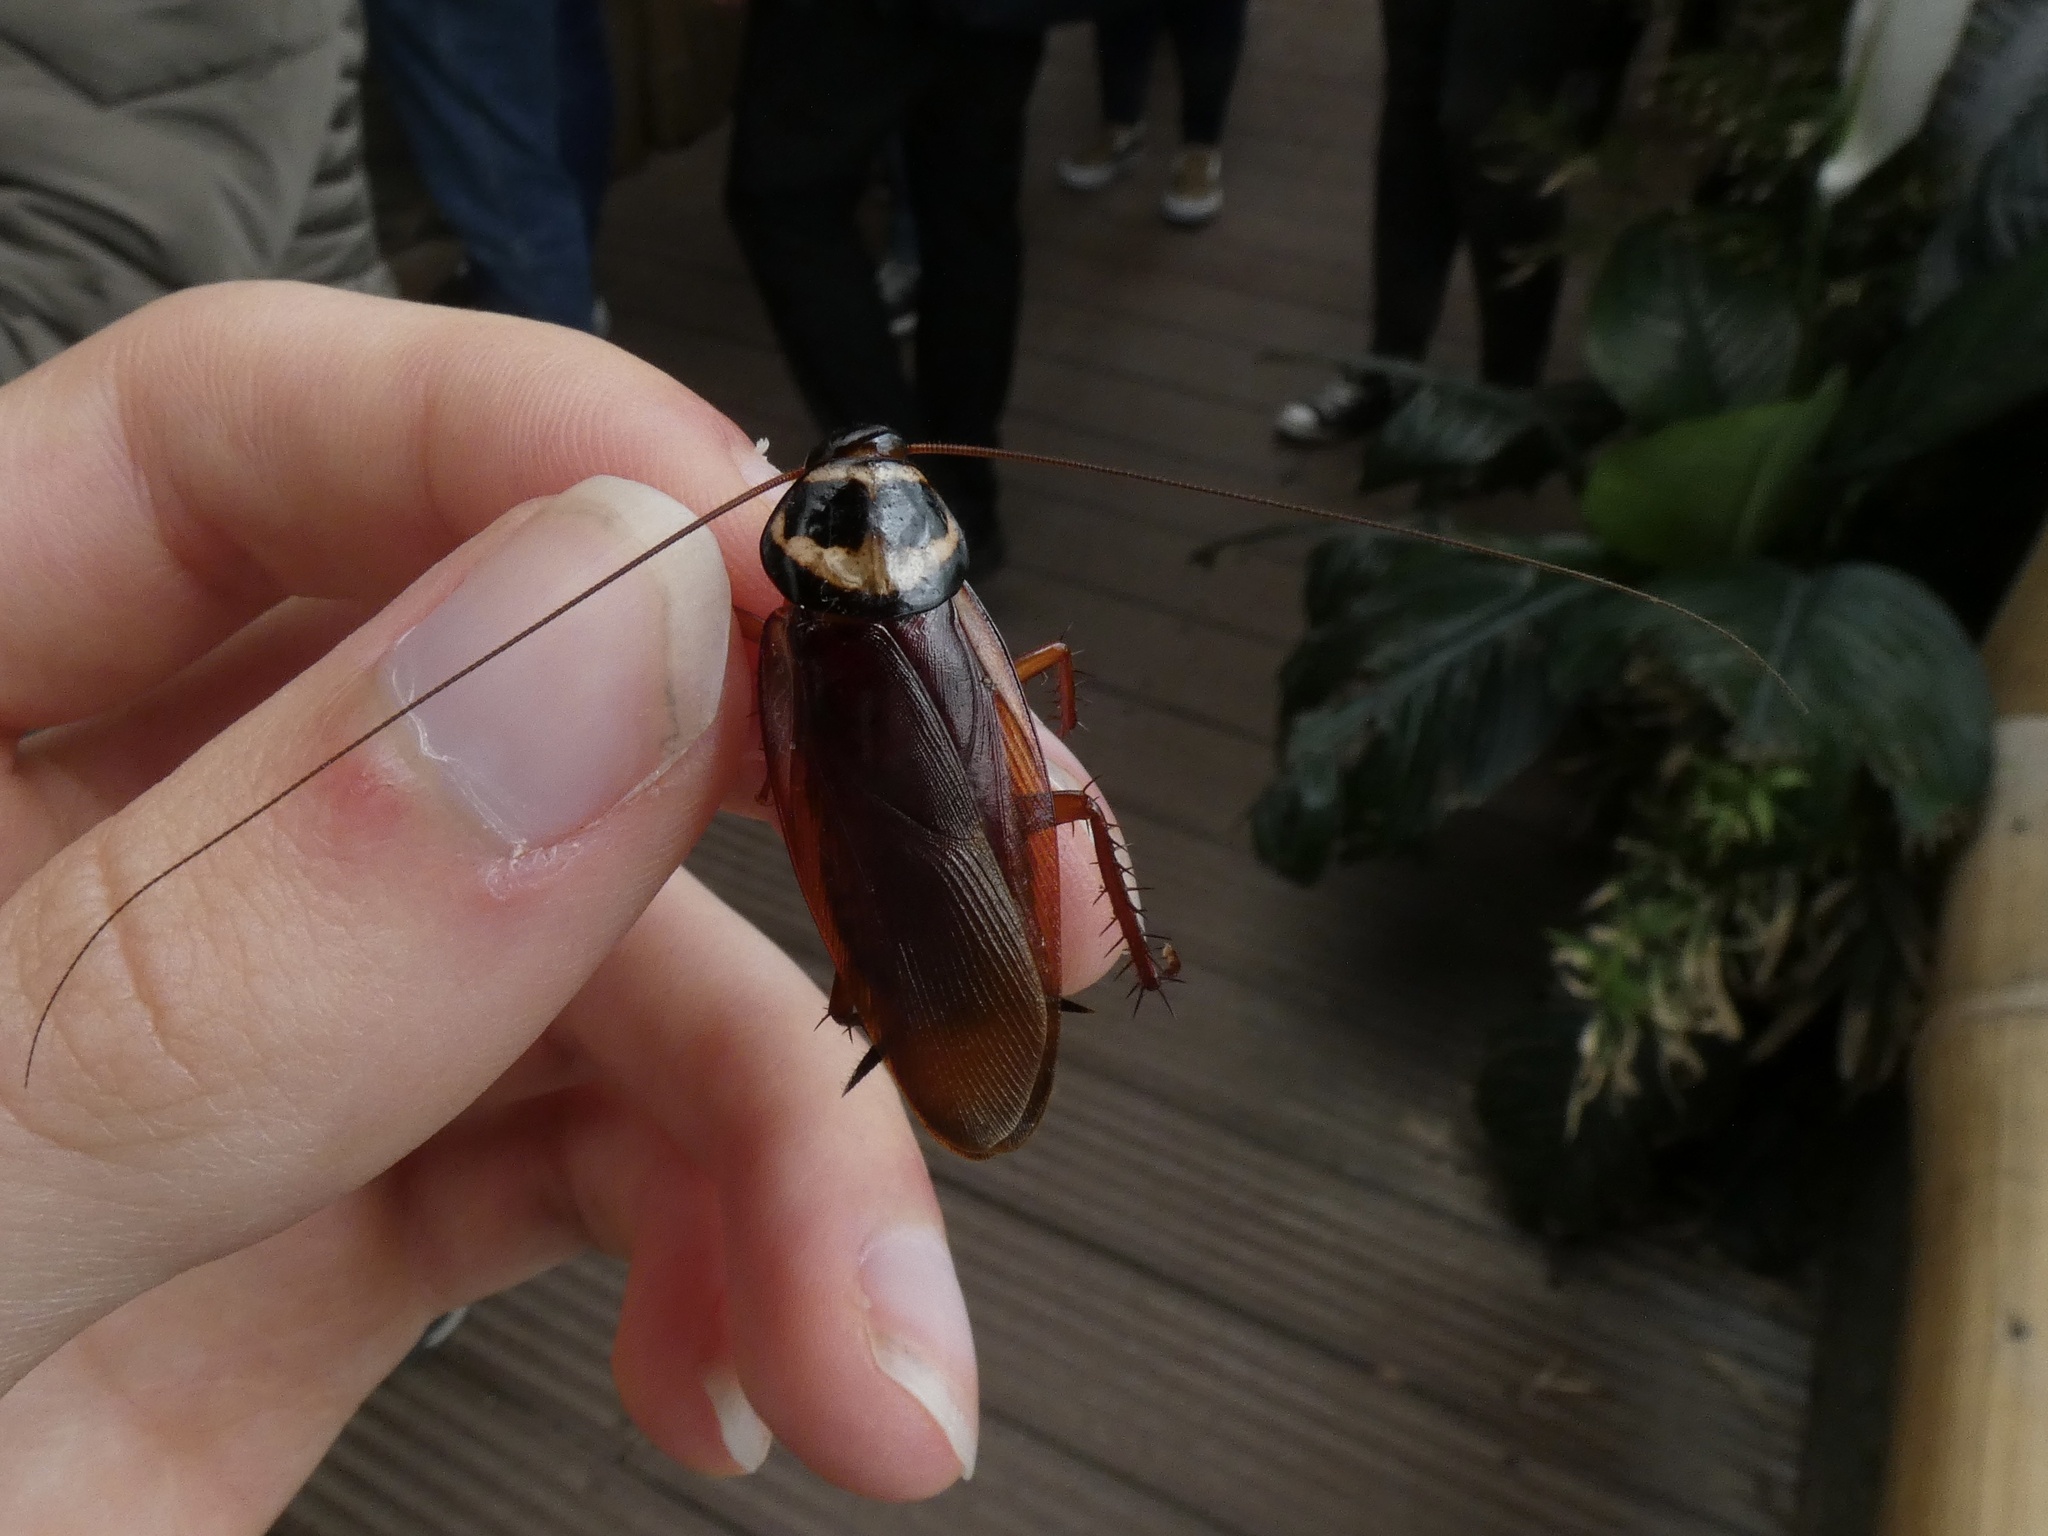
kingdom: Animalia
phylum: Arthropoda
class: Insecta
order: Blattodea
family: Blattidae
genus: Periplaneta
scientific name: Periplaneta australasiae
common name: Australian cockroach
